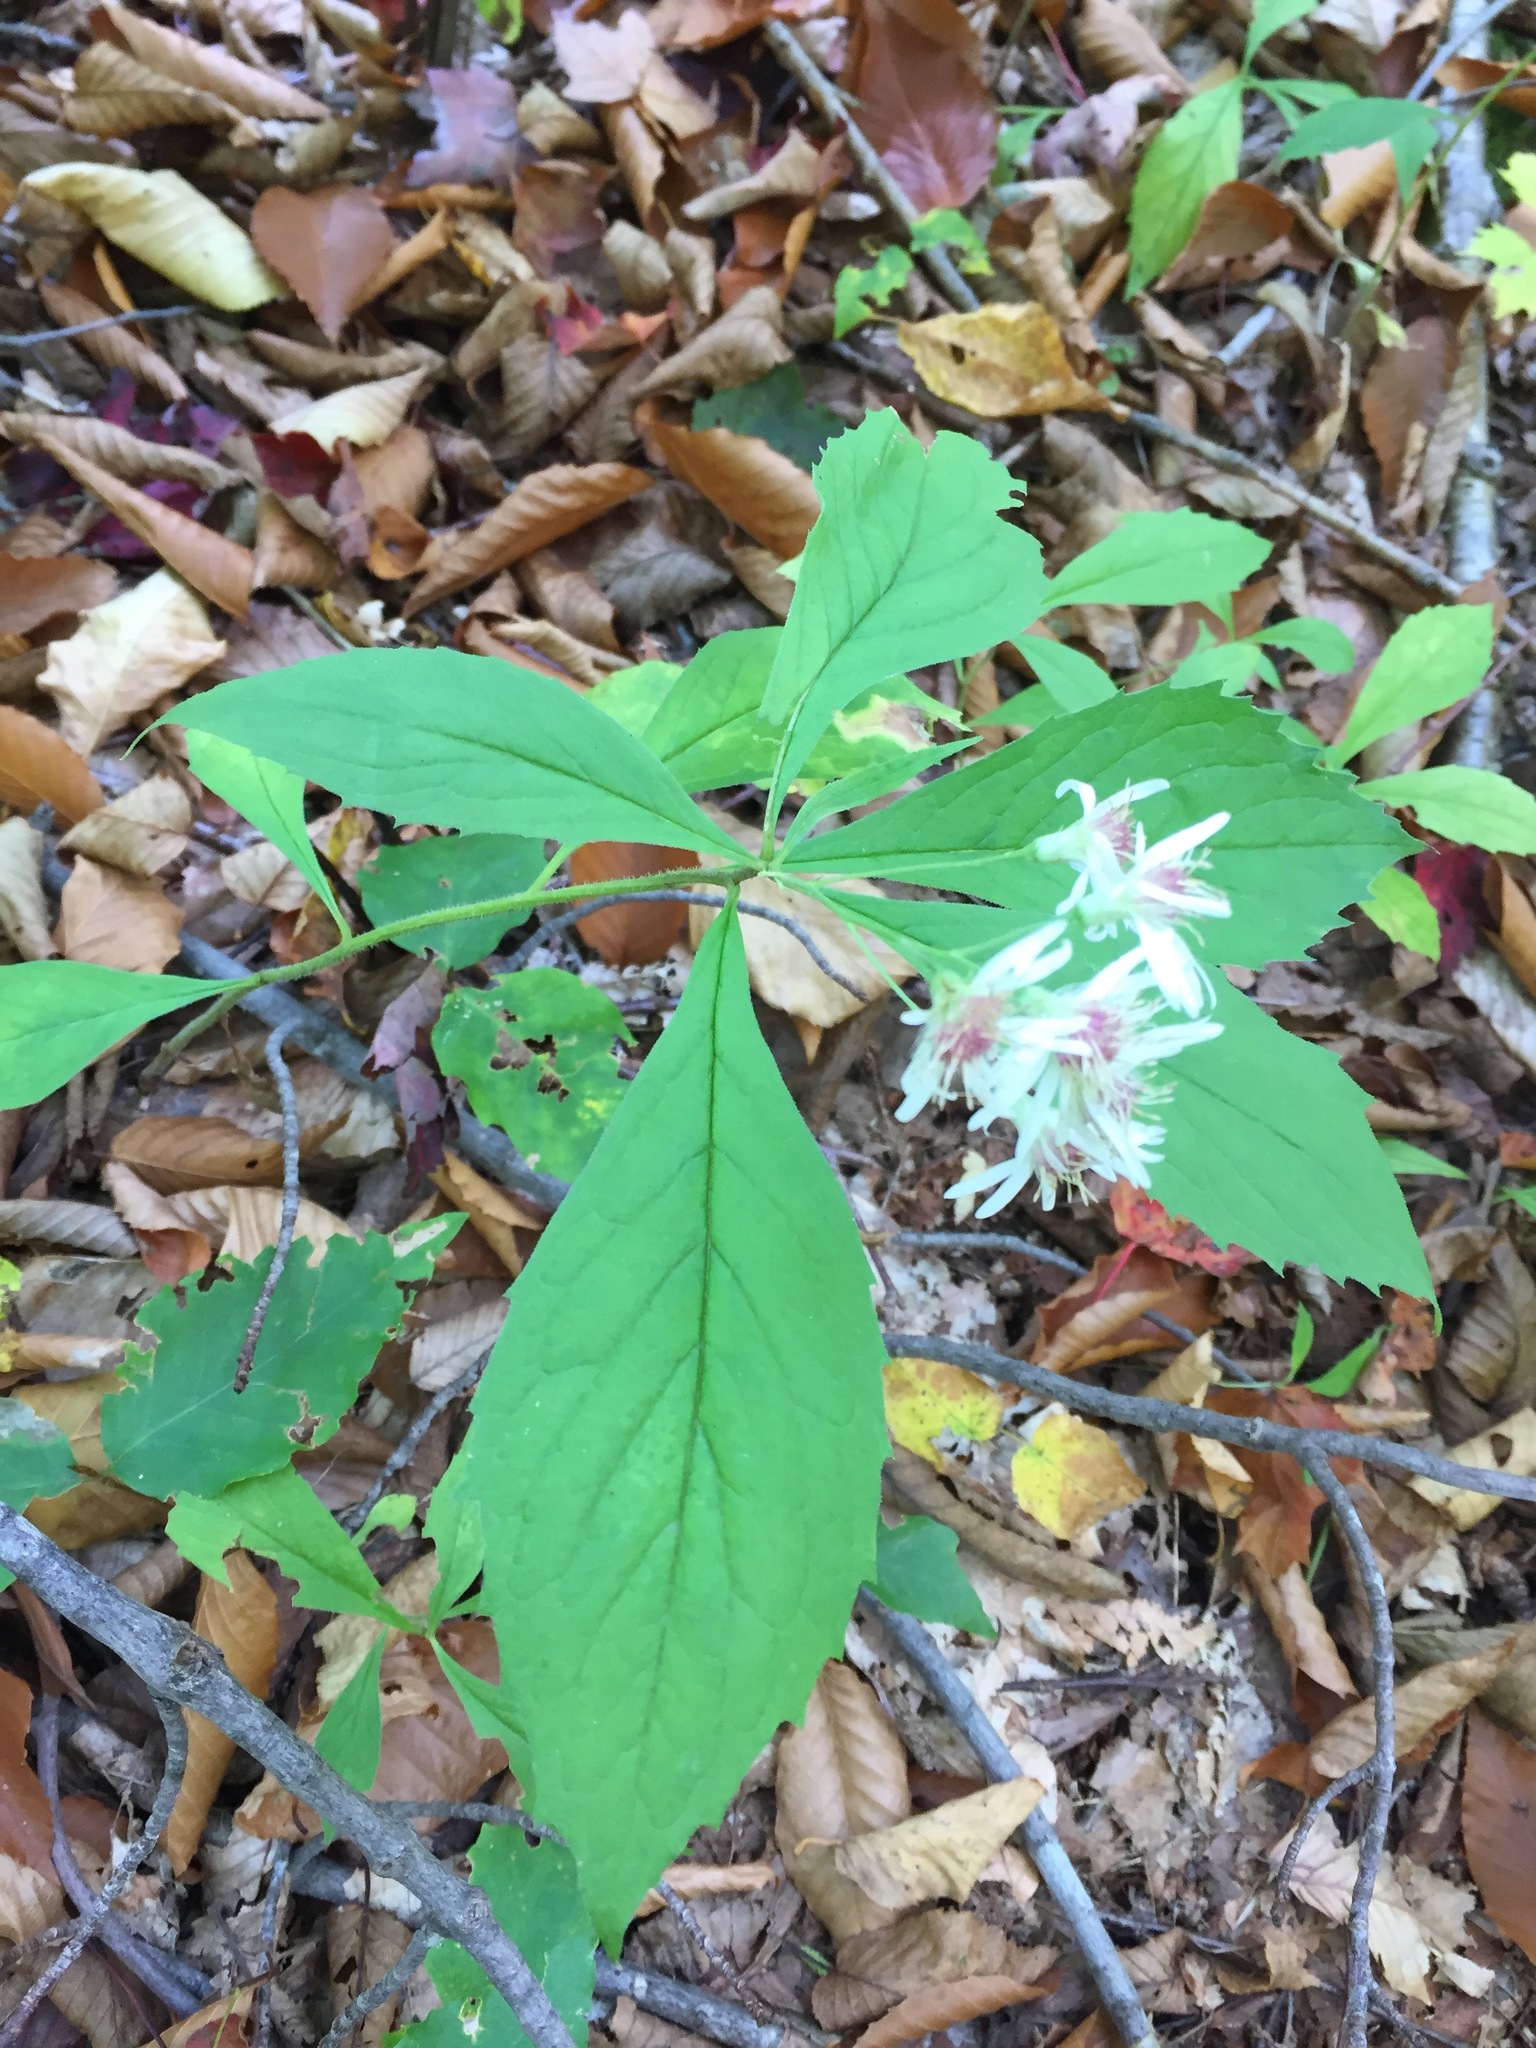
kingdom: Plantae
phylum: Tracheophyta
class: Magnoliopsida
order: Asterales
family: Asteraceae
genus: Oclemena
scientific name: Oclemena acuminata
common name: Mountain aster
